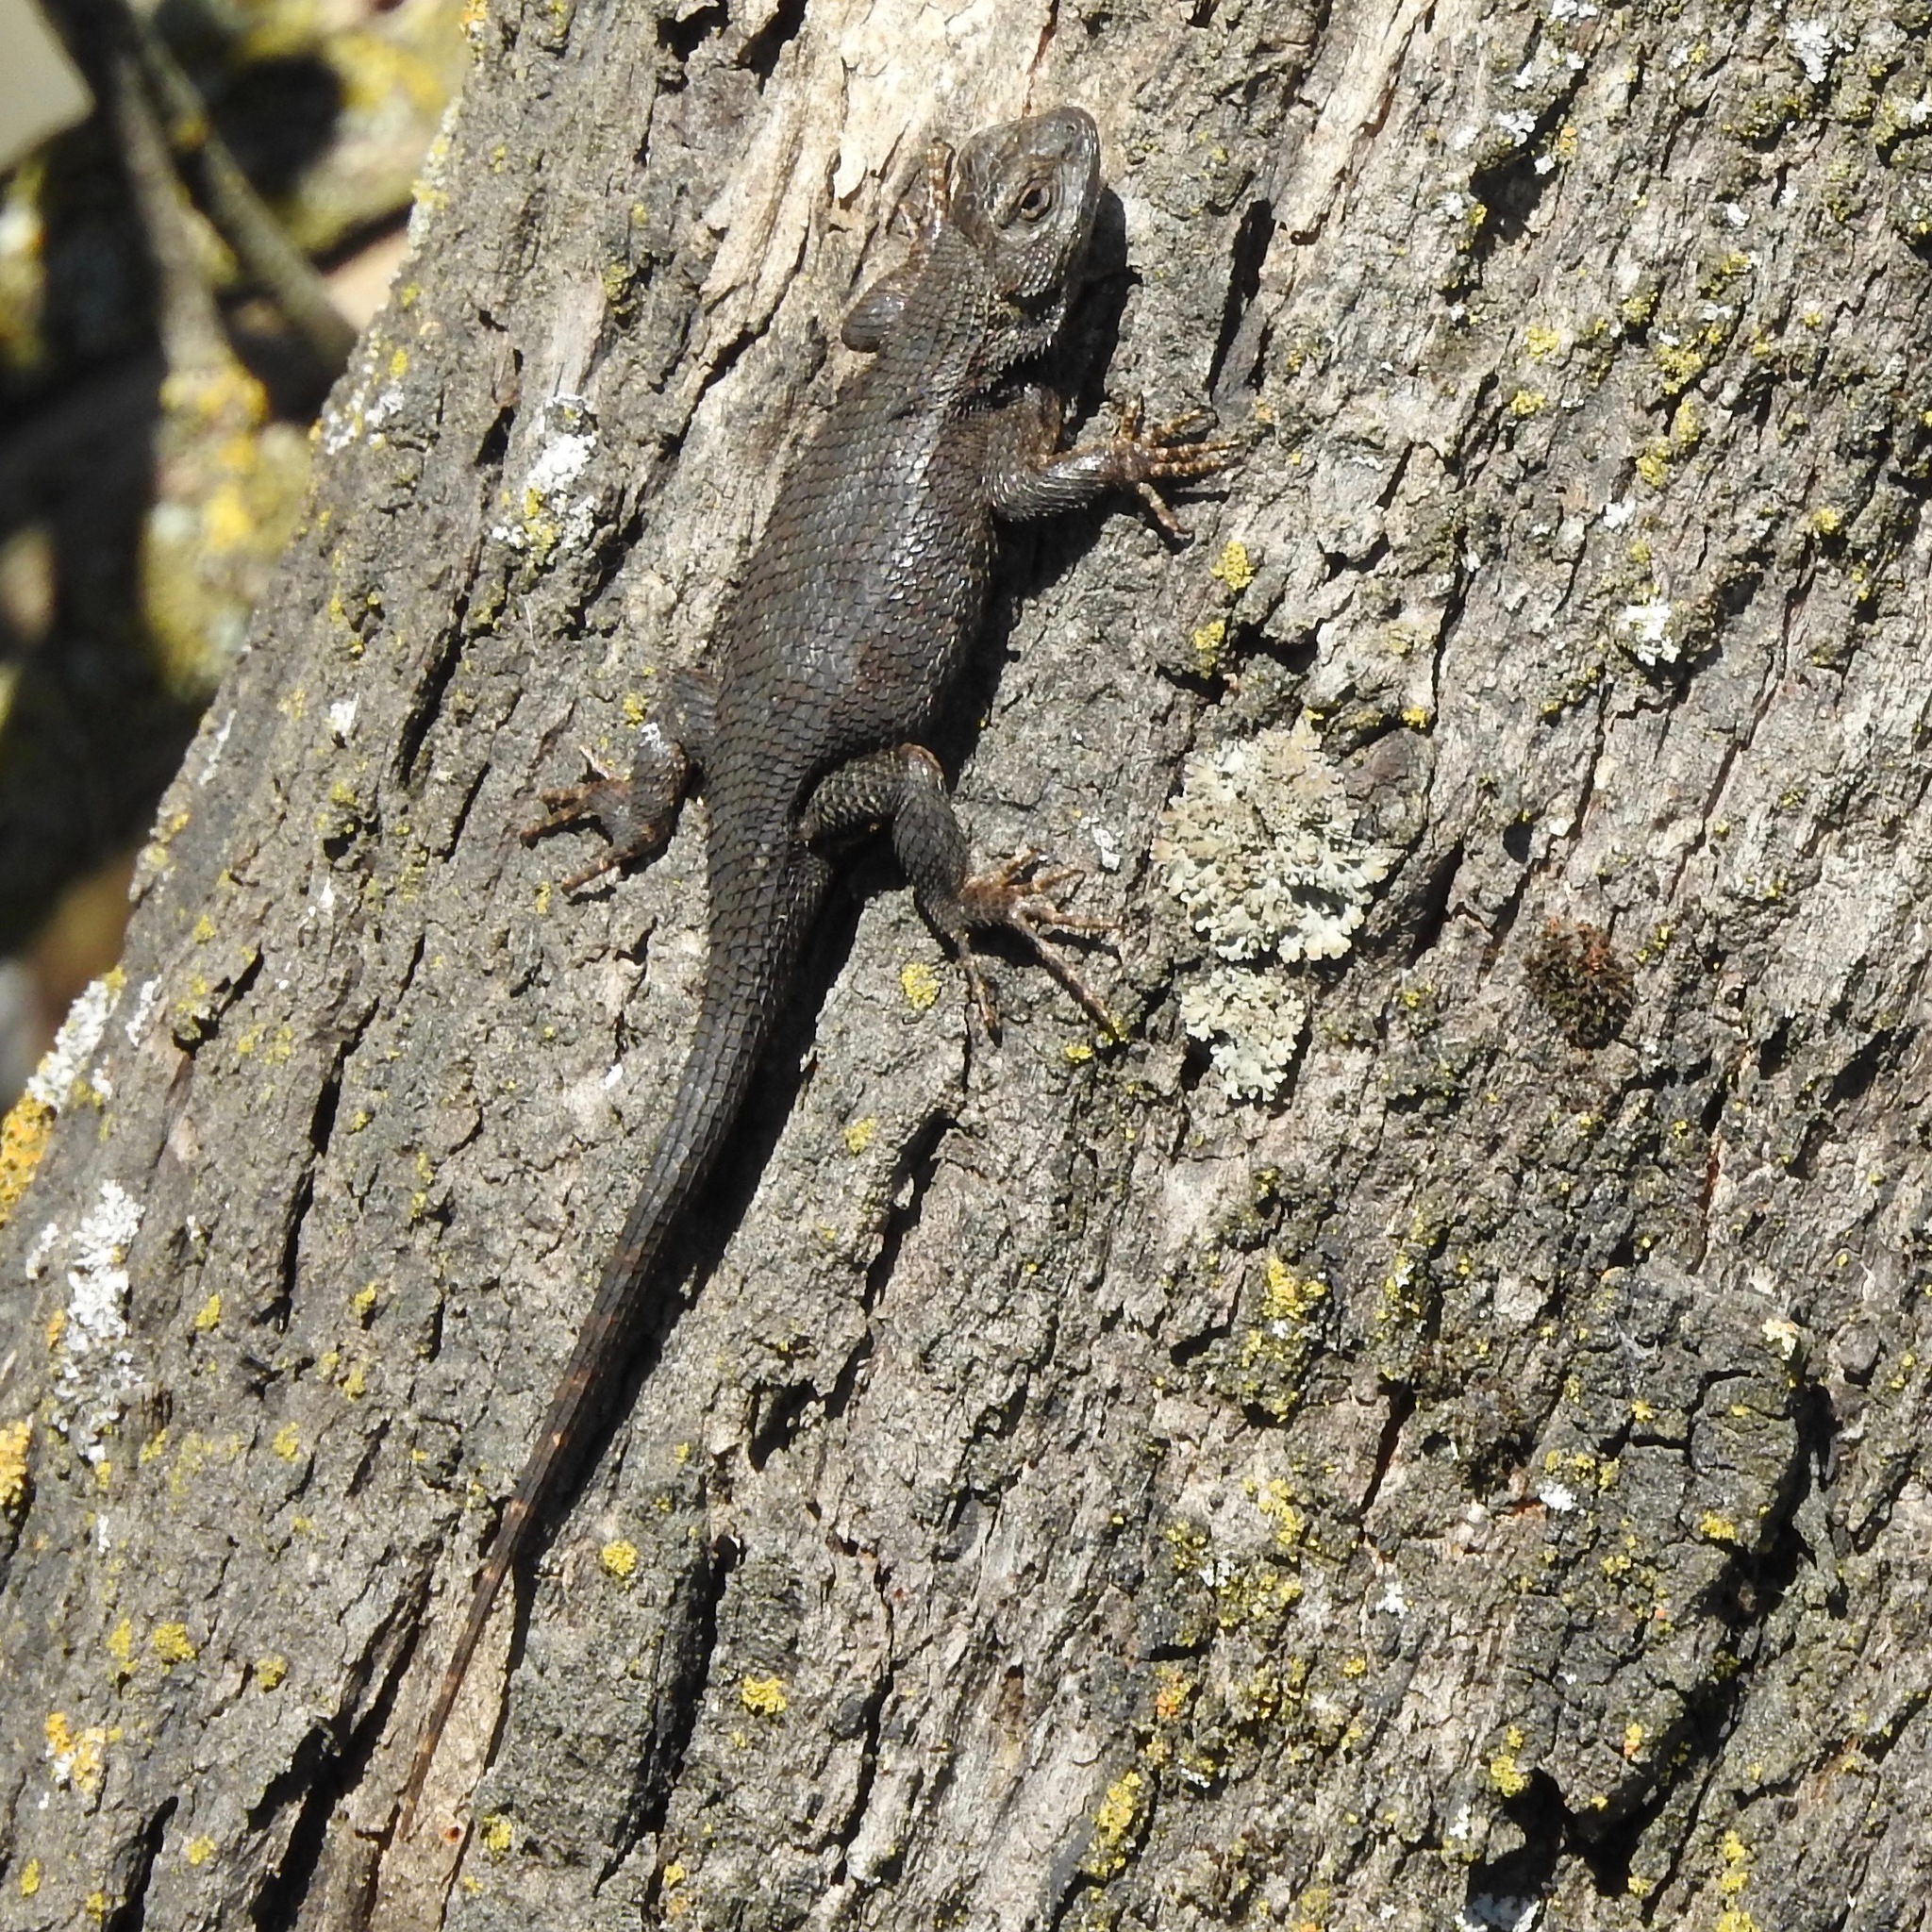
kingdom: Animalia
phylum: Chordata
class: Squamata
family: Phrynosomatidae
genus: Sceloporus
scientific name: Sceloporus occidentalis
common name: Western fence lizard
